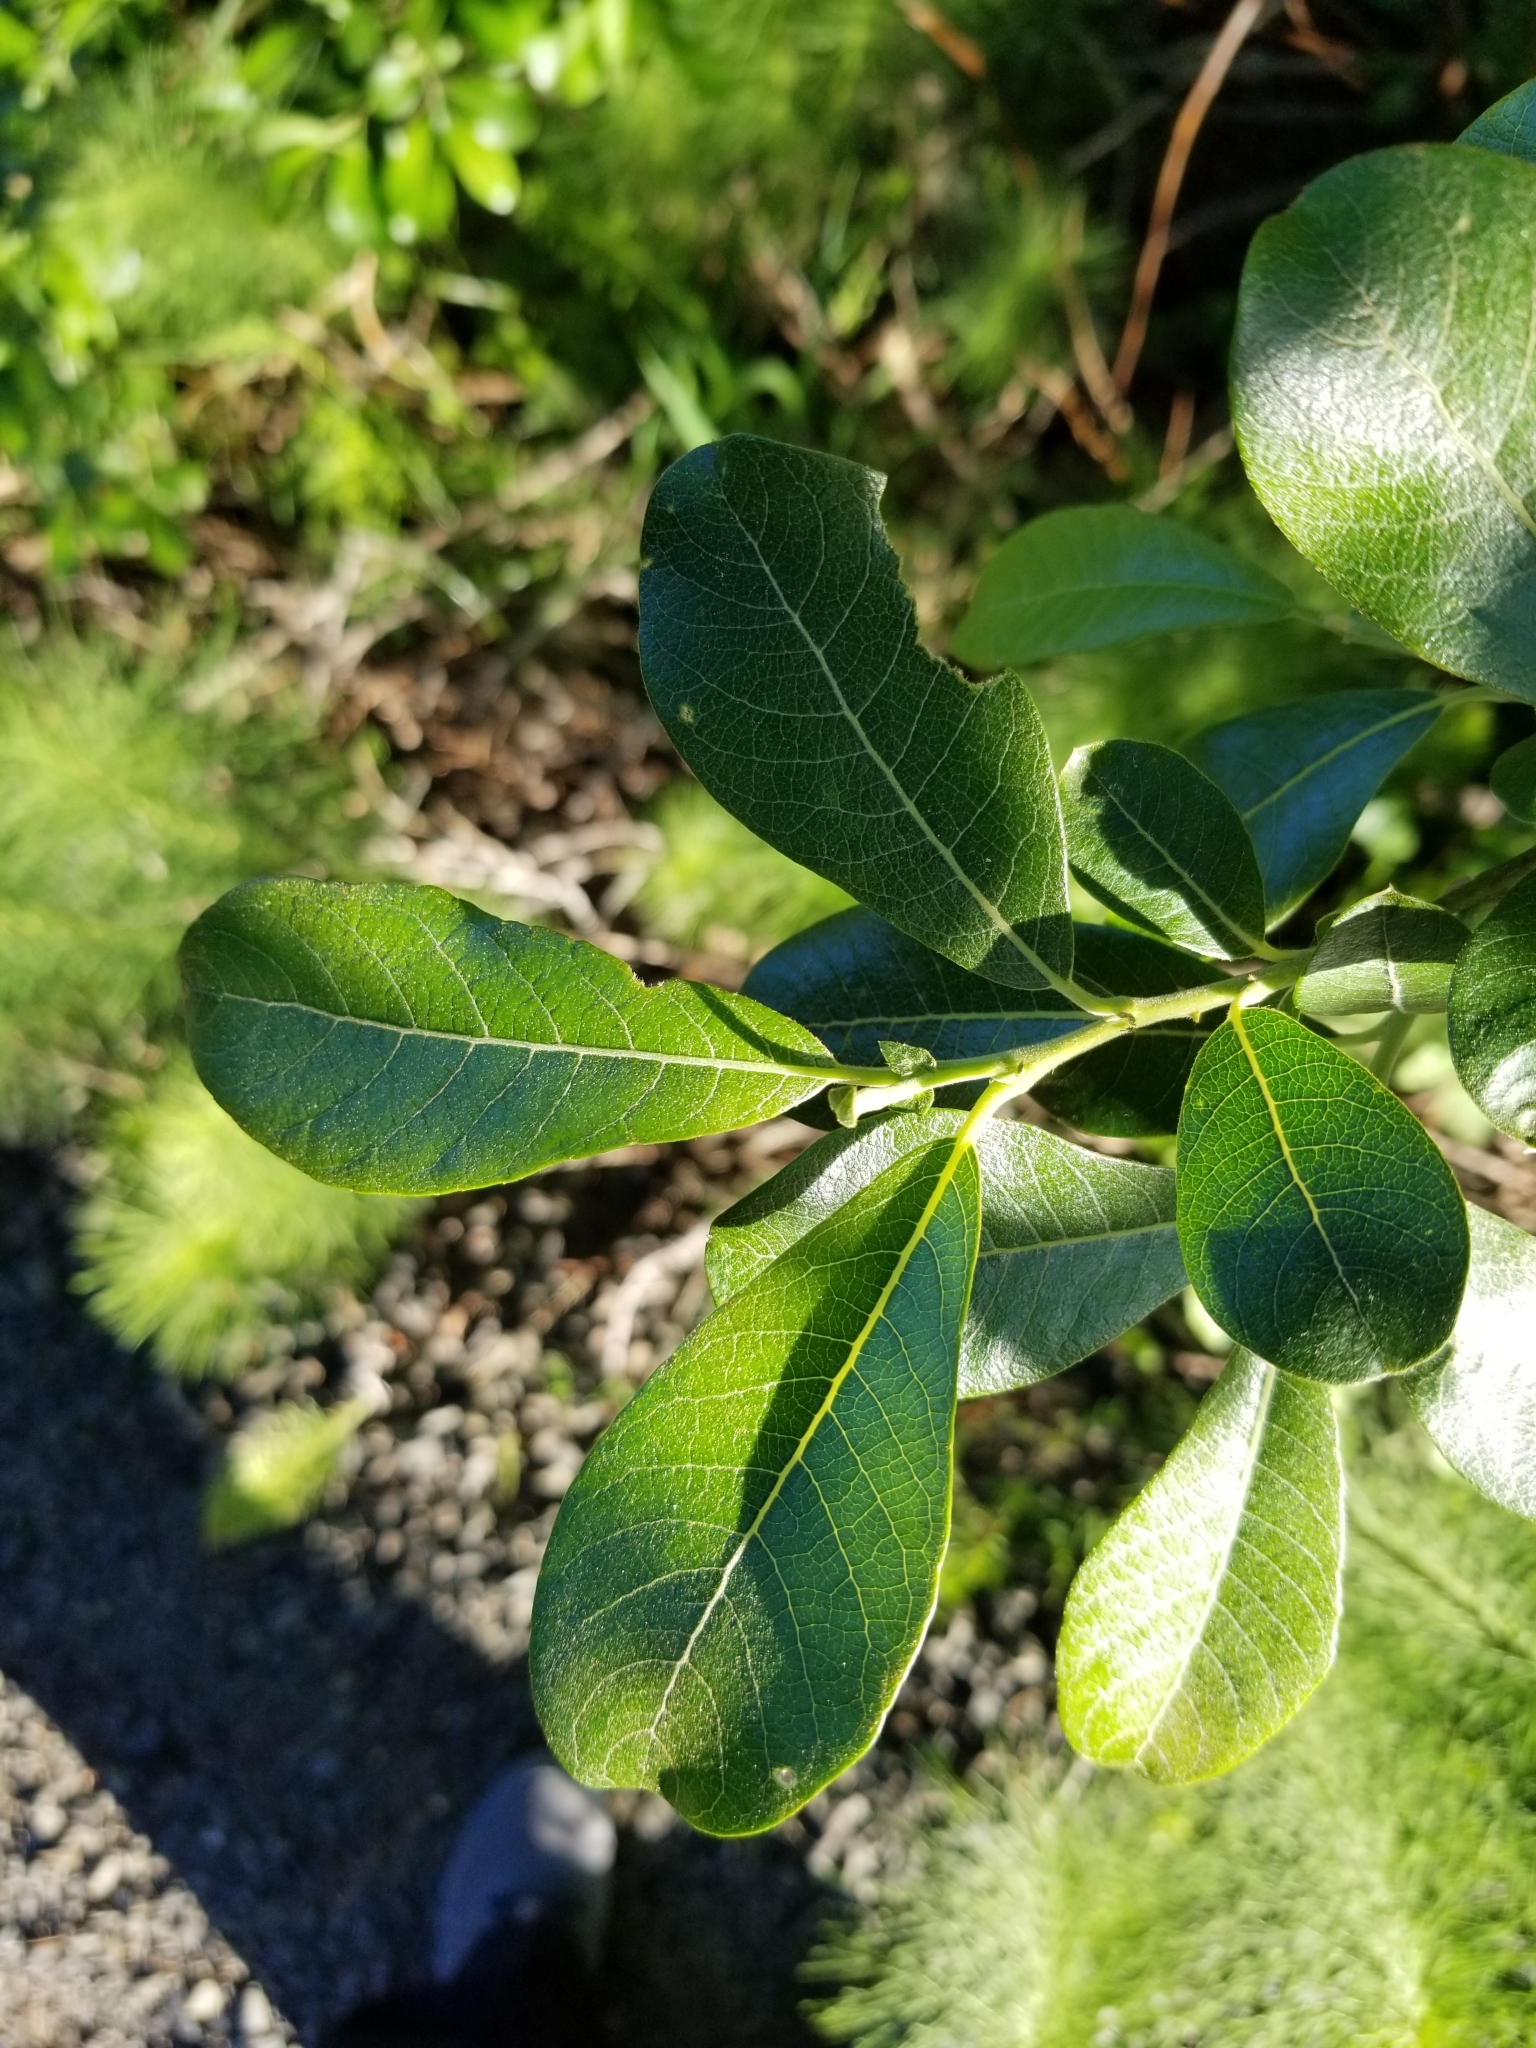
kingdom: Plantae
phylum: Tracheophyta
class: Magnoliopsida
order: Malpighiales
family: Salicaceae
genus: Salix
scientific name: Salix sitchensis
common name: Sitka willow
